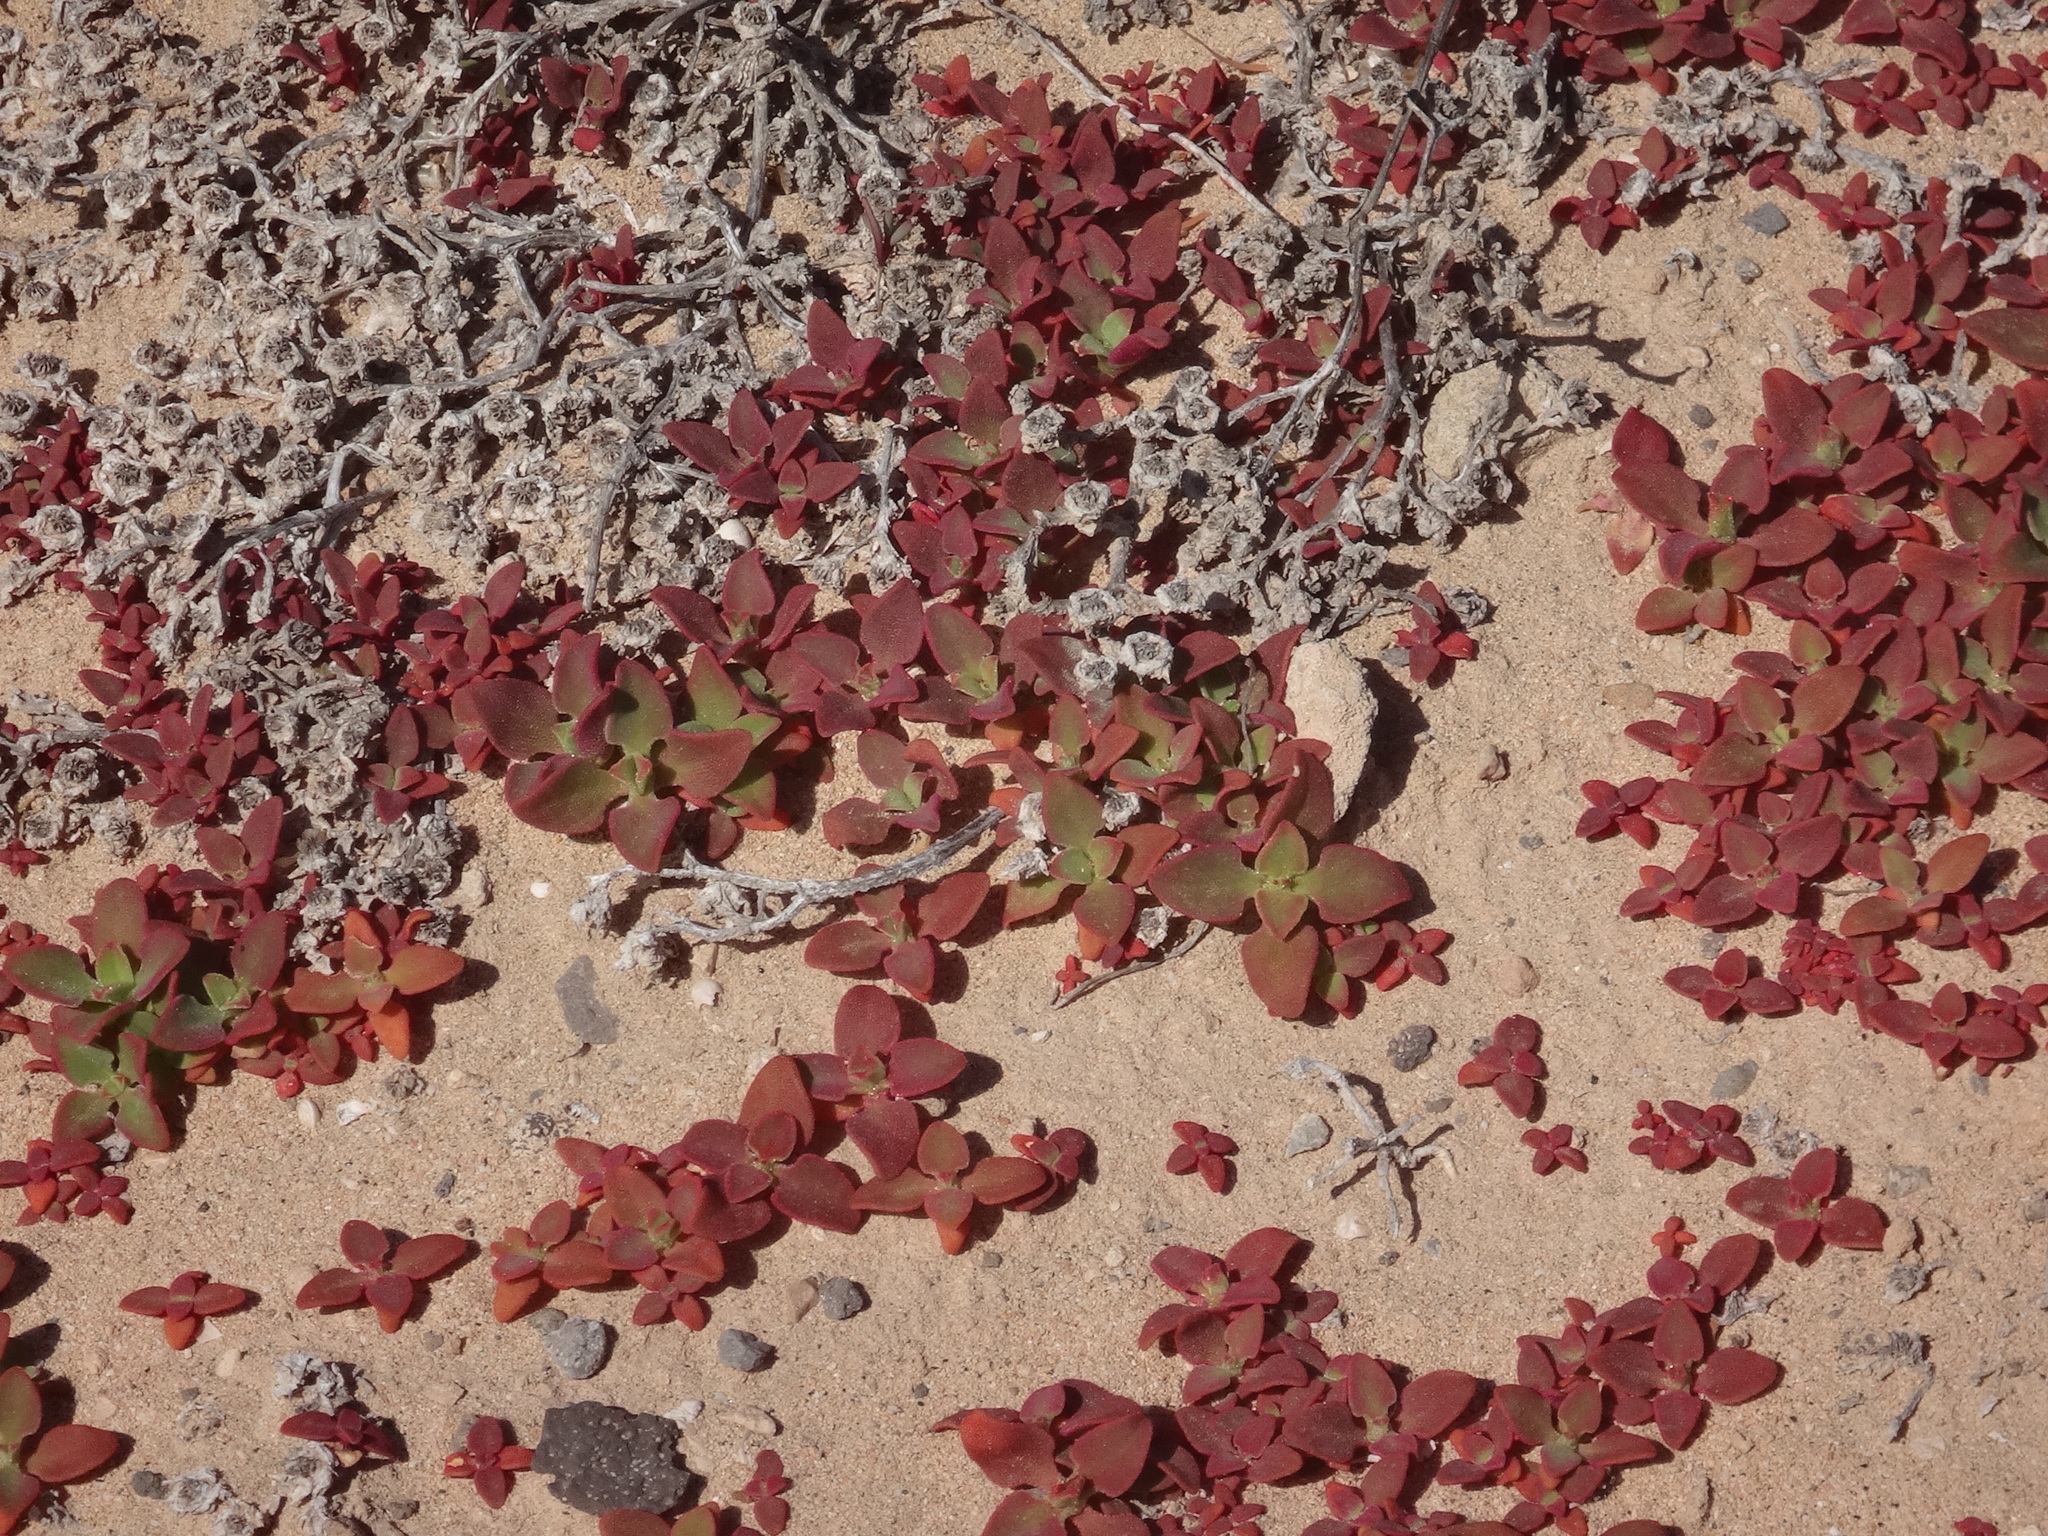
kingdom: Plantae
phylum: Tracheophyta
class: Magnoliopsida
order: Caryophyllales
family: Aizoaceae
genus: Mesembryanthemum
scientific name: Mesembryanthemum crystallinum
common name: Common iceplant
